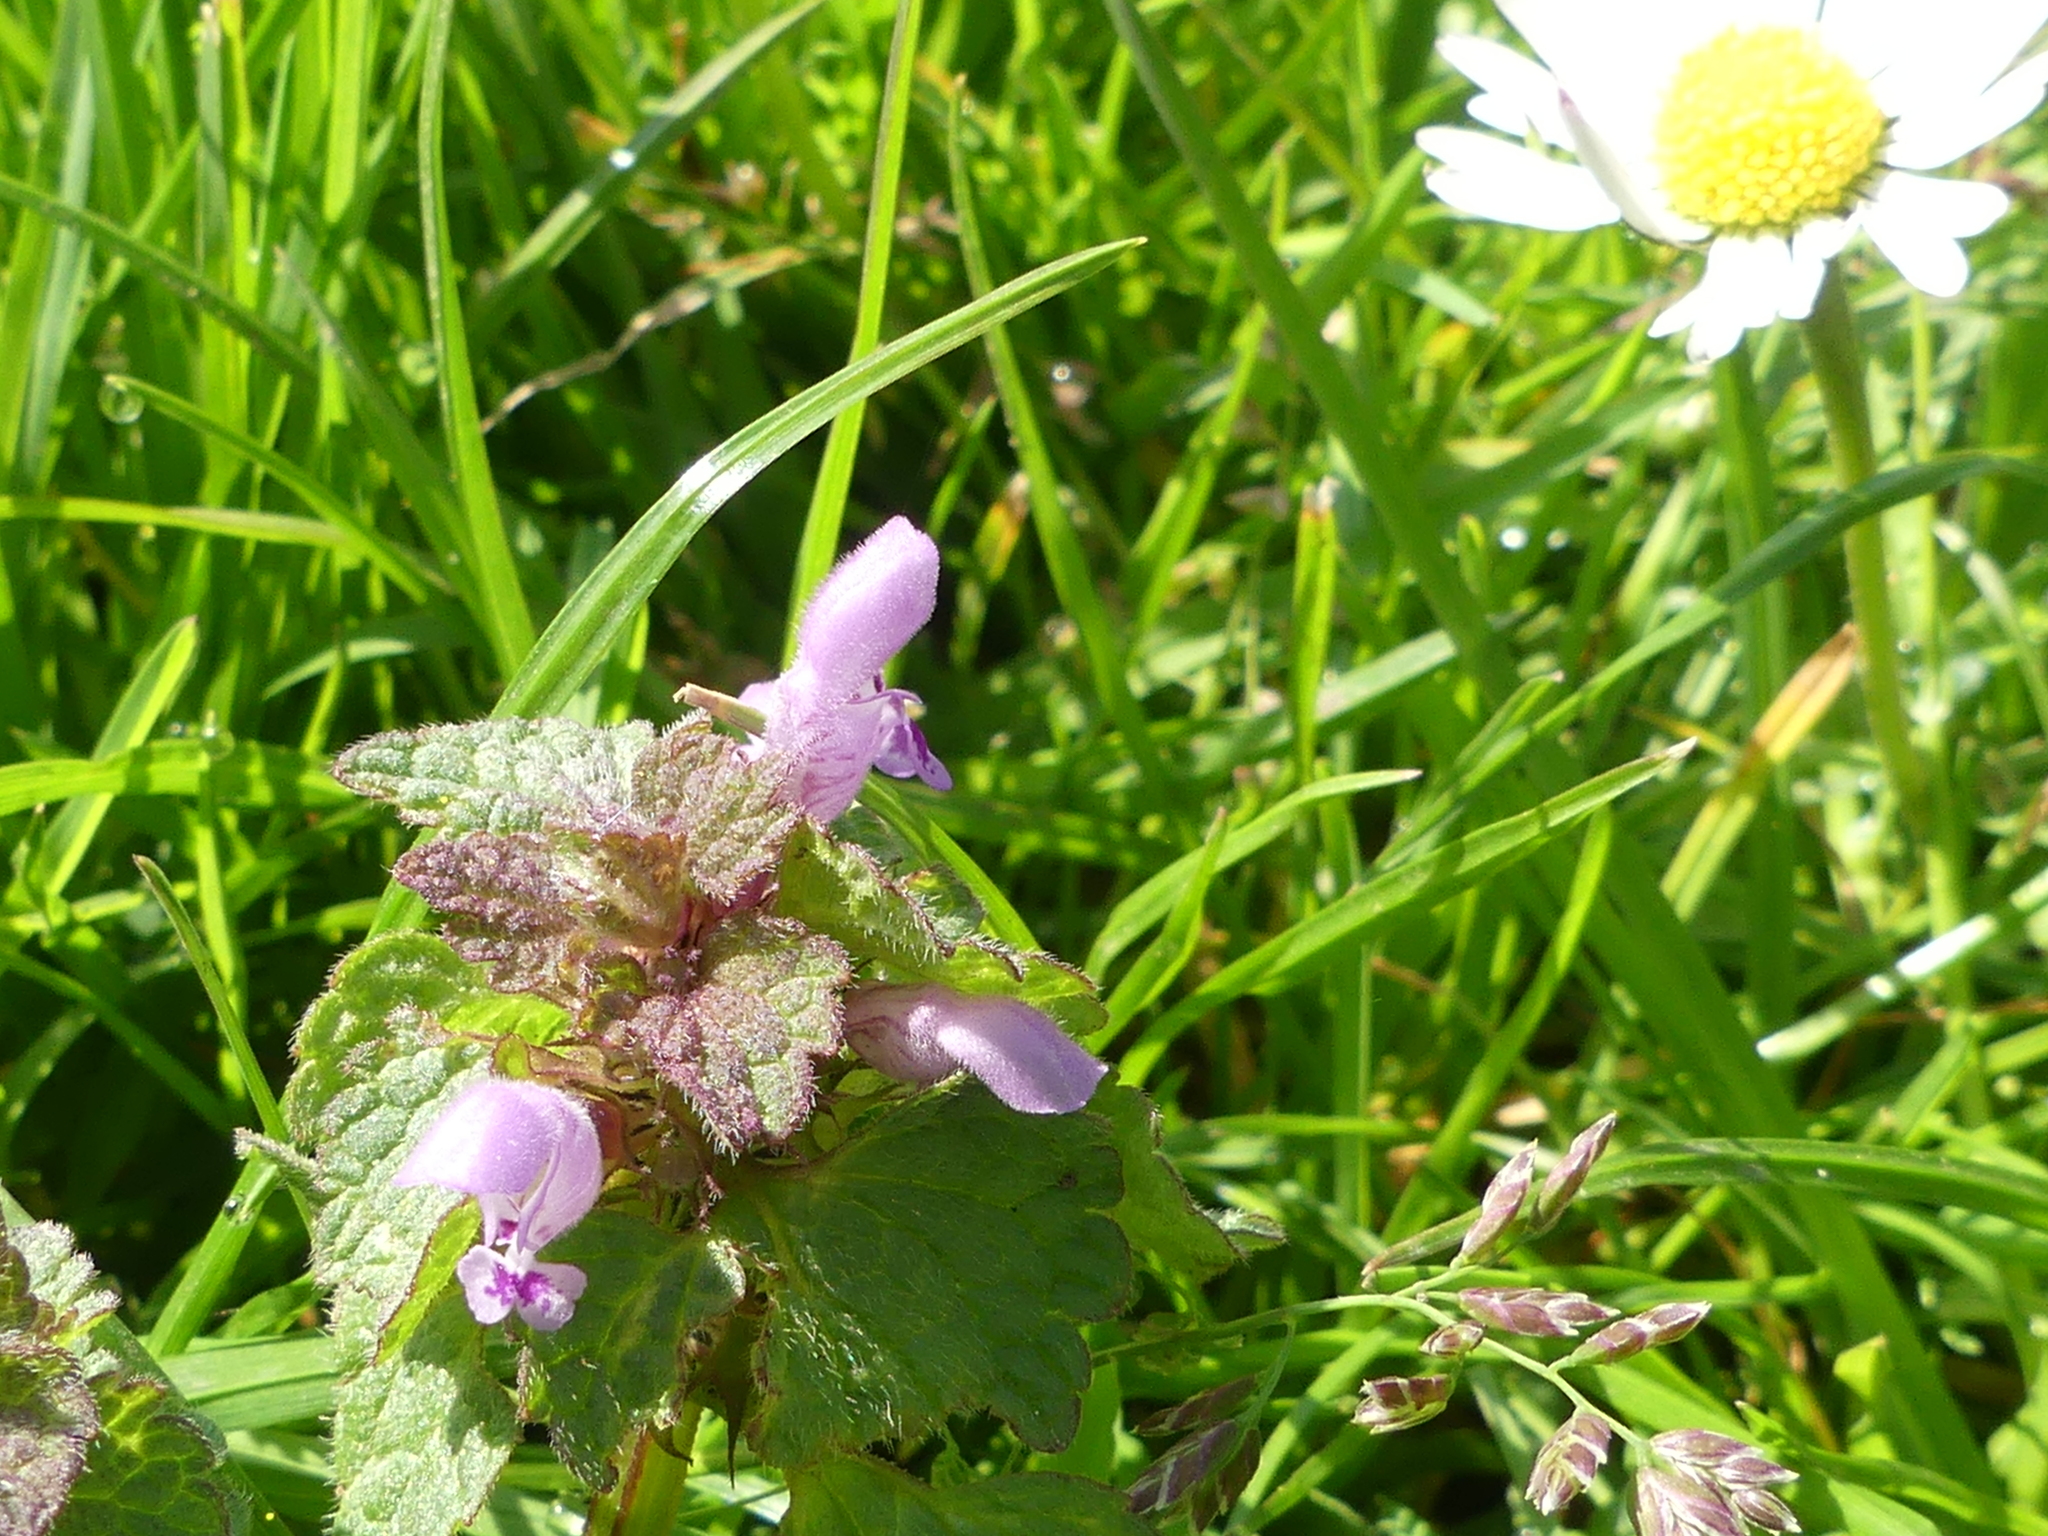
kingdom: Plantae
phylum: Tracheophyta
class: Magnoliopsida
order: Lamiales
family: Lamiaceae
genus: Lamium
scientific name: Lamium purpureum
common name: Red dead-nettle
